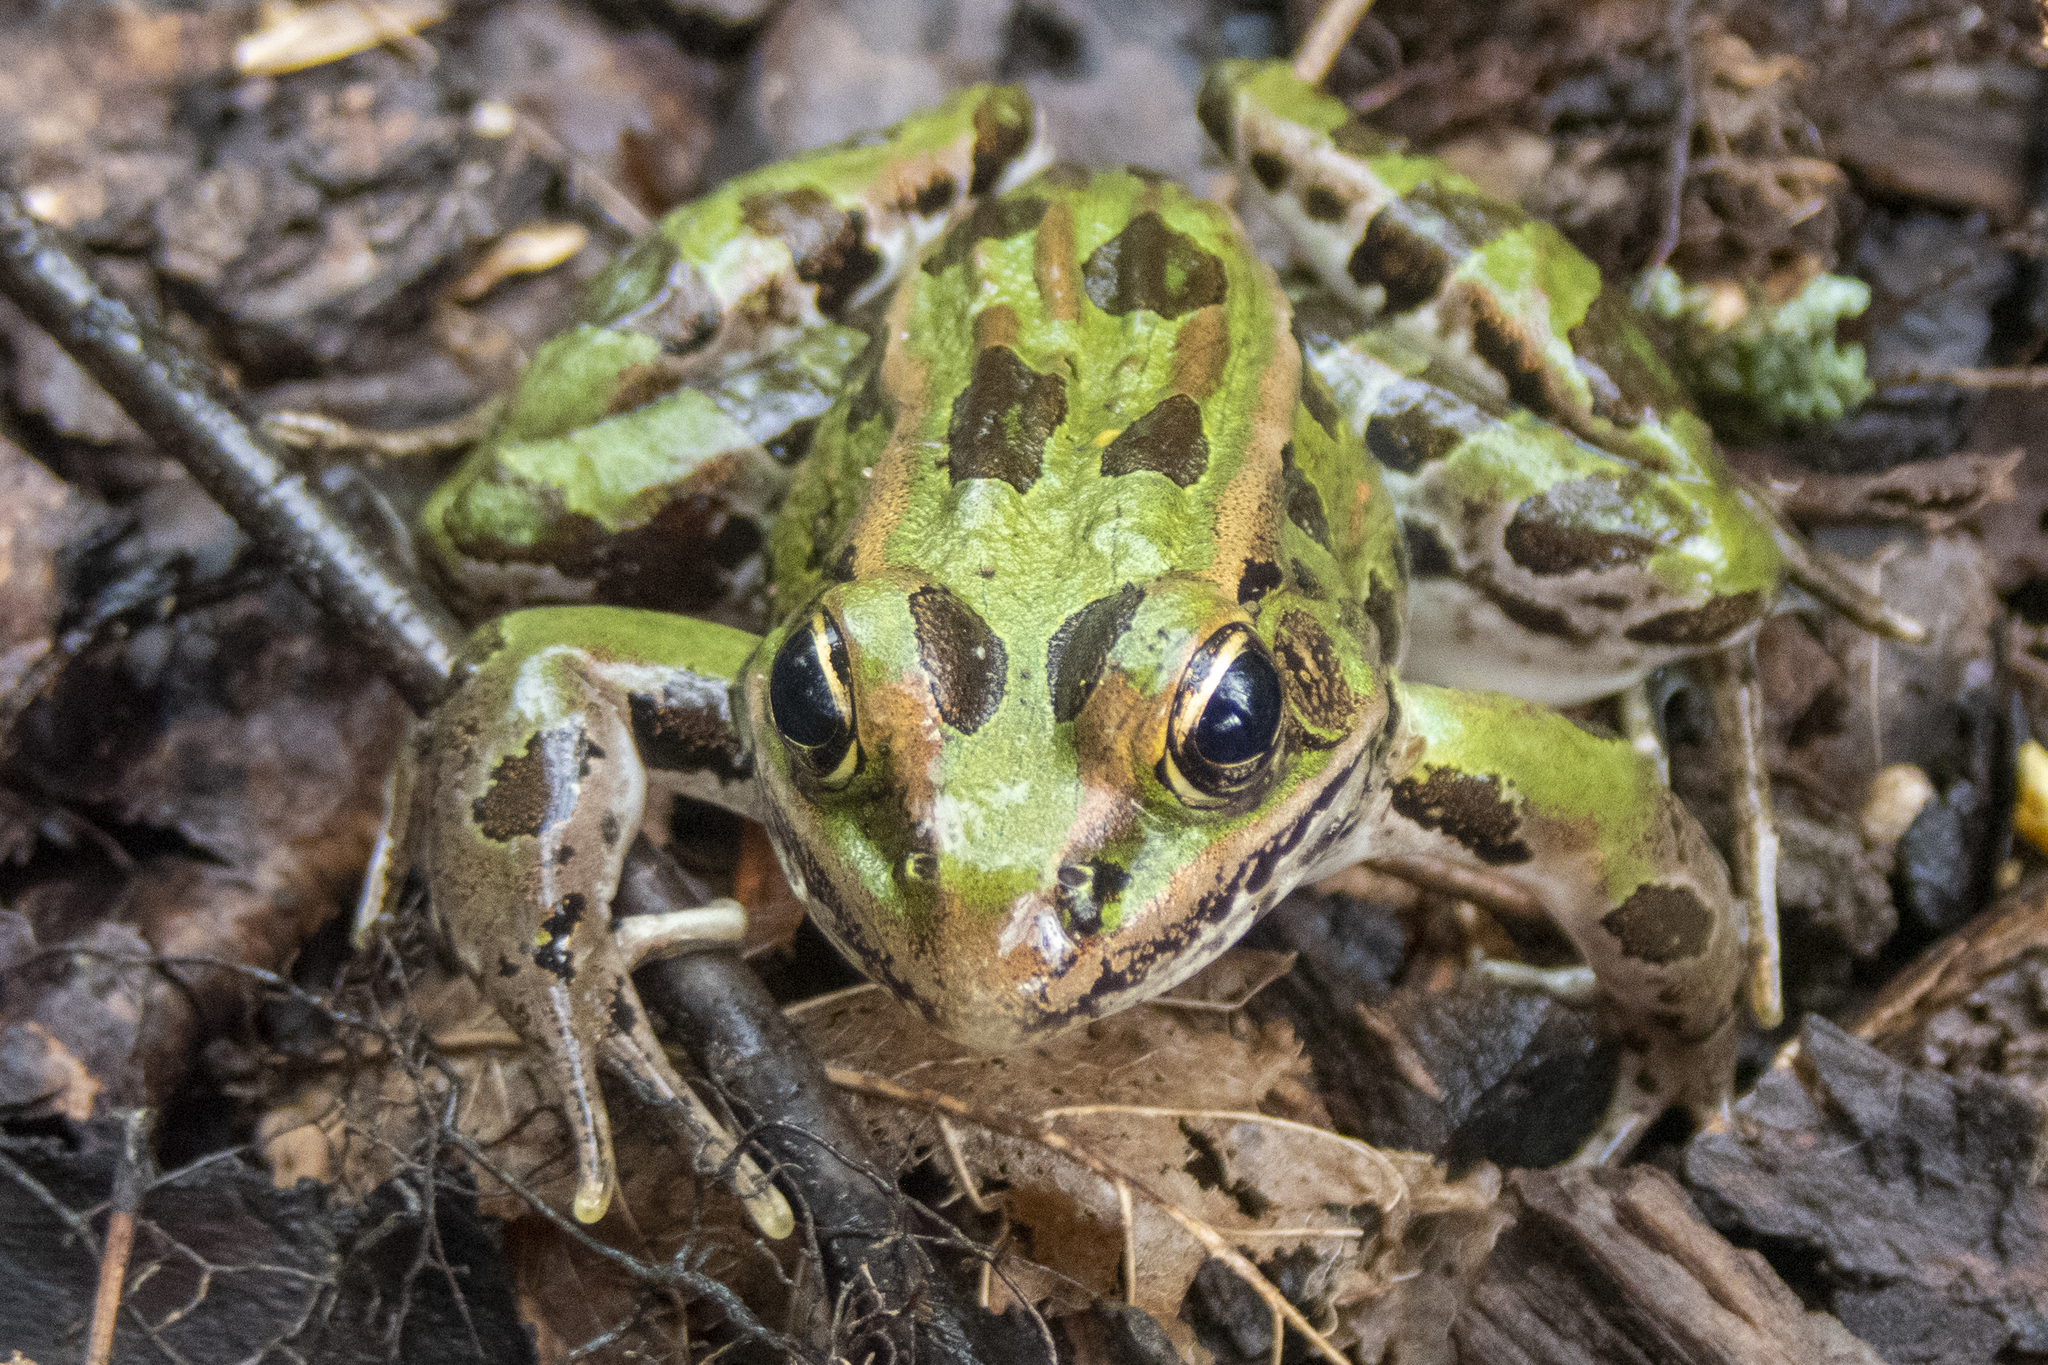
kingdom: Animalia
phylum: Chordata
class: Amphibia
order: Anura
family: Ranidae
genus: Lithobates
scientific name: Lithobates pipiens
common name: Northern leopard frog
